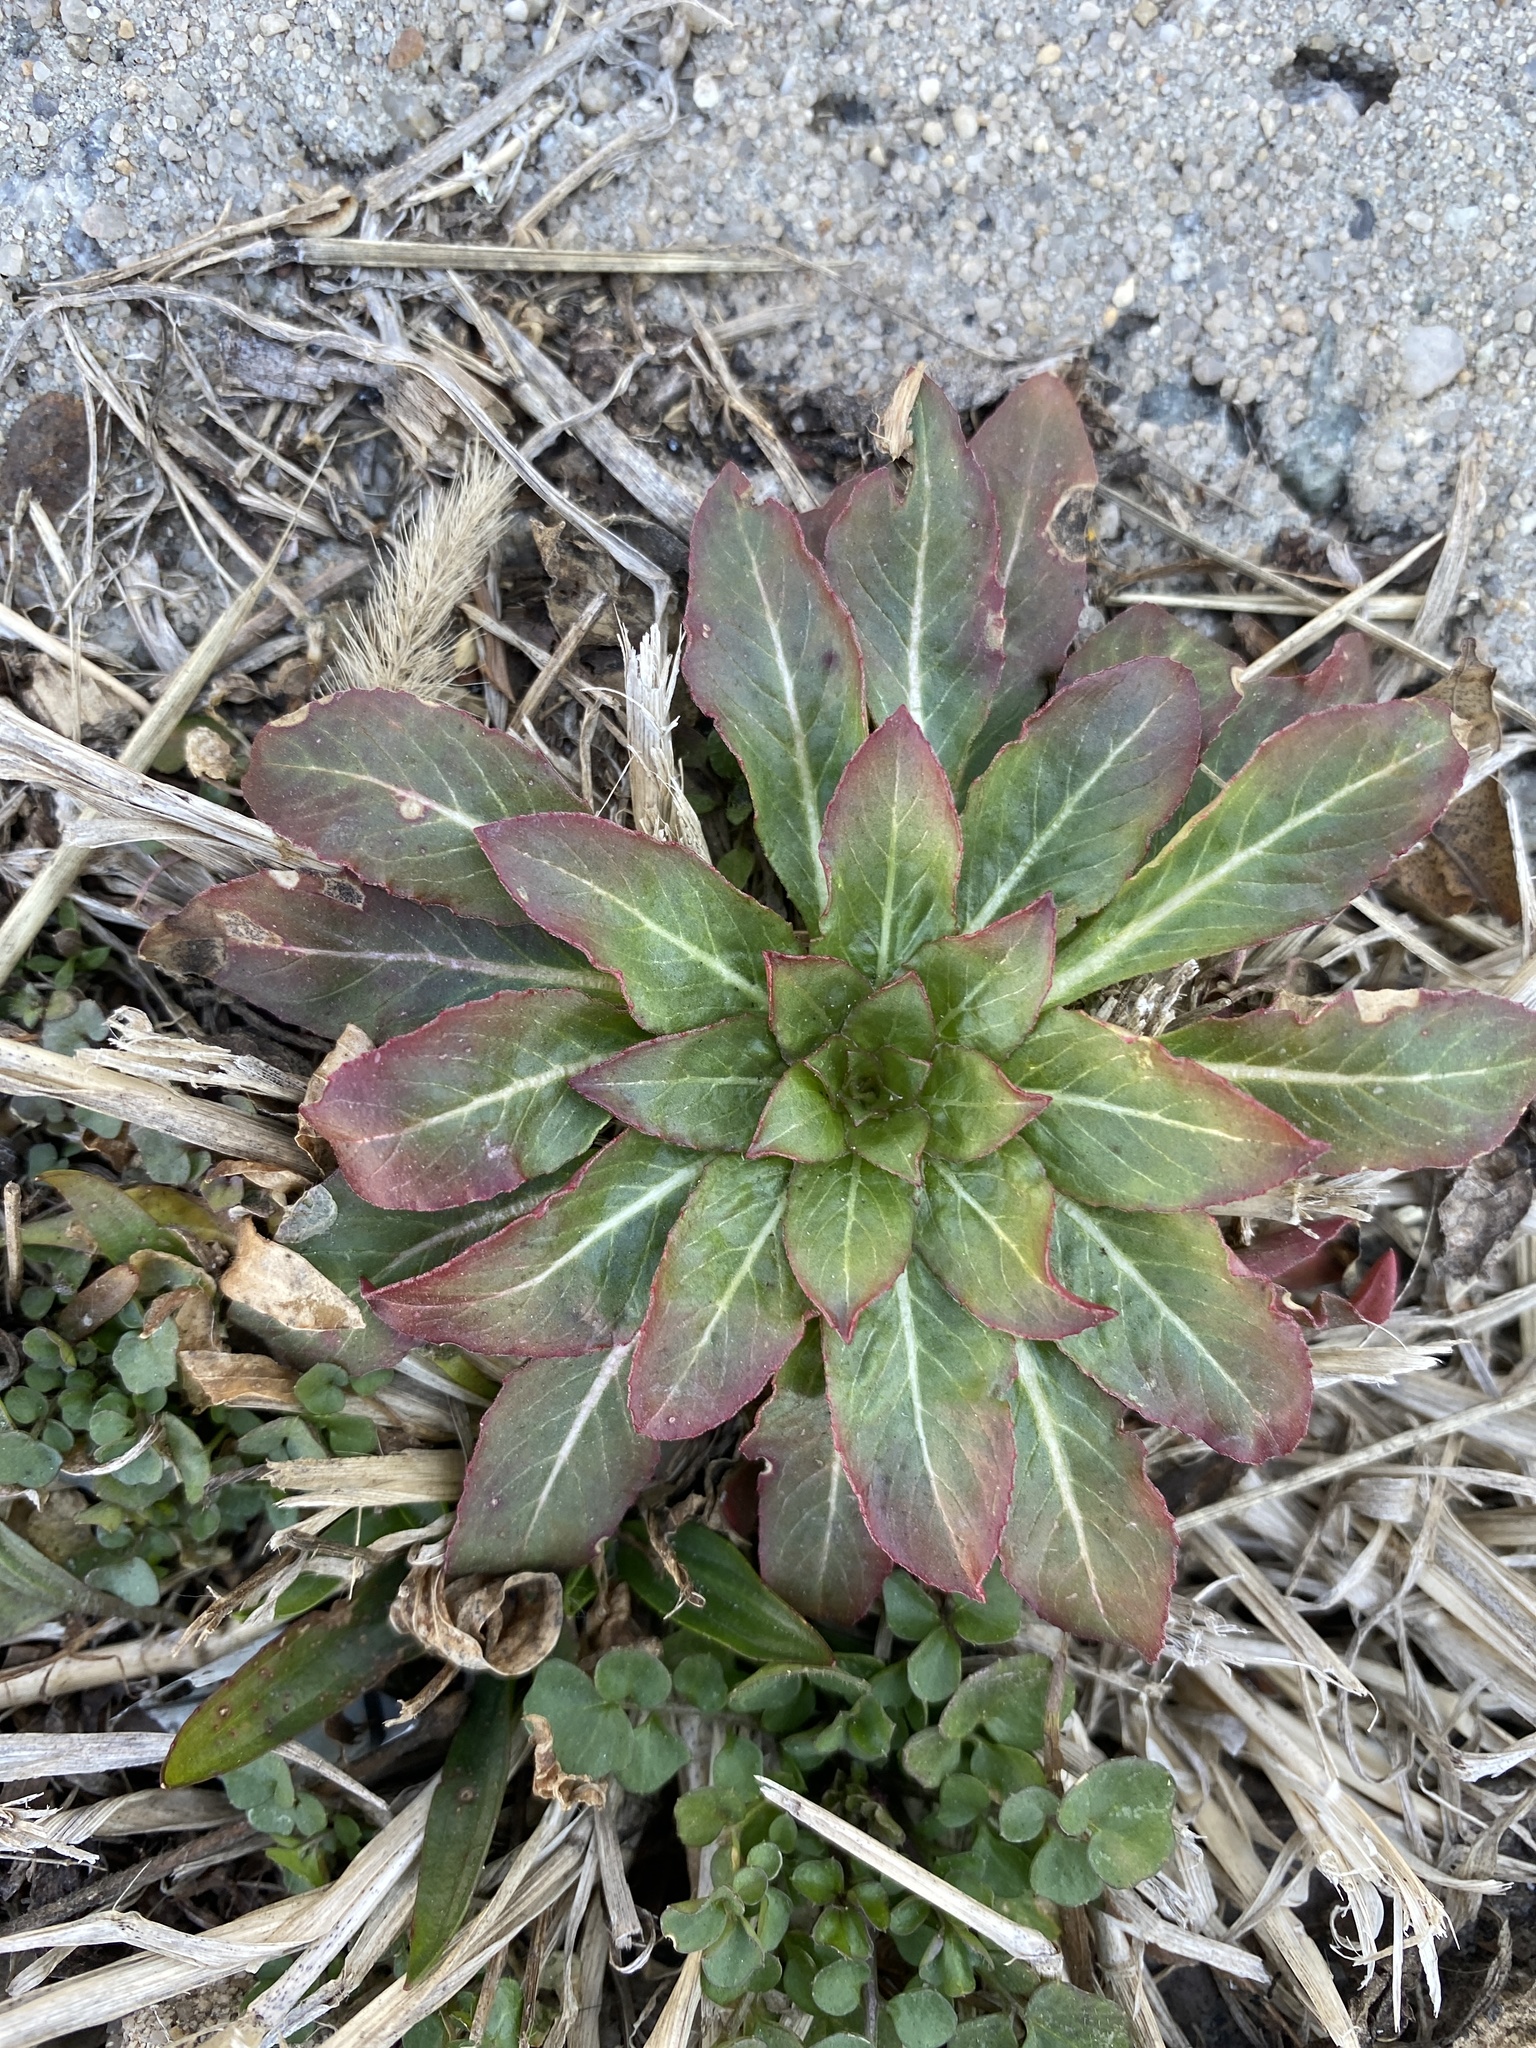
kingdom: Plantae
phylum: Tracheophyta
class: Magnoliopsida
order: Myrtales
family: Onagraceae
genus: Oenothera
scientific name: Oenothera biennis
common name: Common evening-primrose
